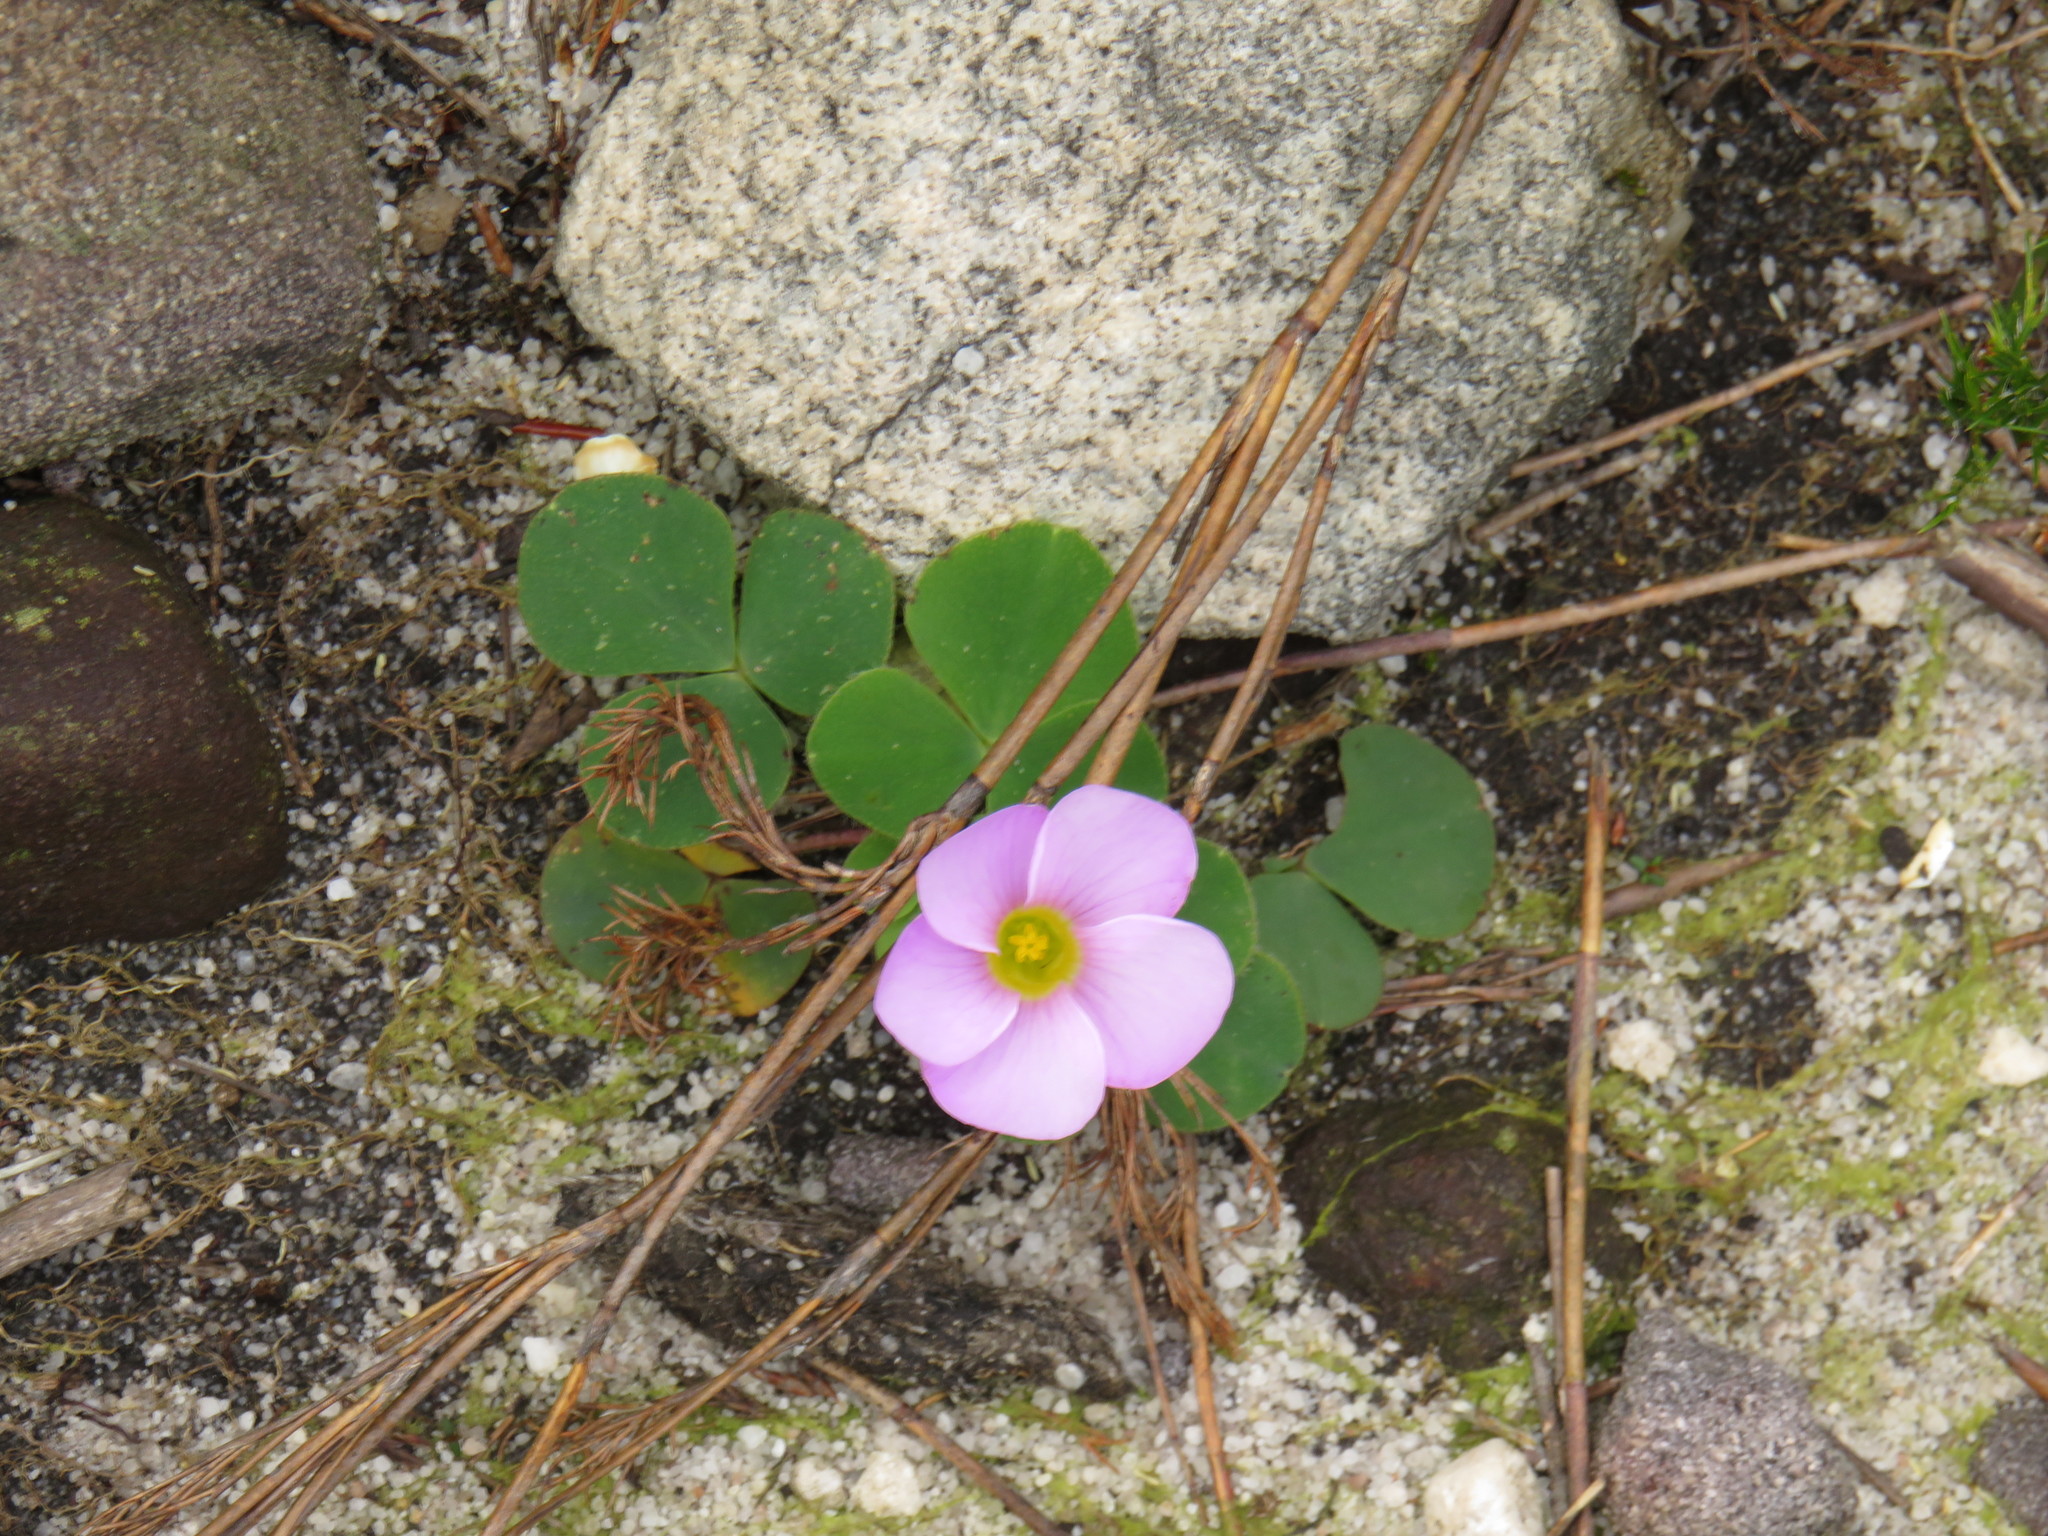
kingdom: Plantae
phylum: Tracheophyta
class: Magnoliopsida
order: Oxalidales
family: Oxalidaceae
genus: Oxalis
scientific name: Oxalis purpurea
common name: Purple woodsorrel
